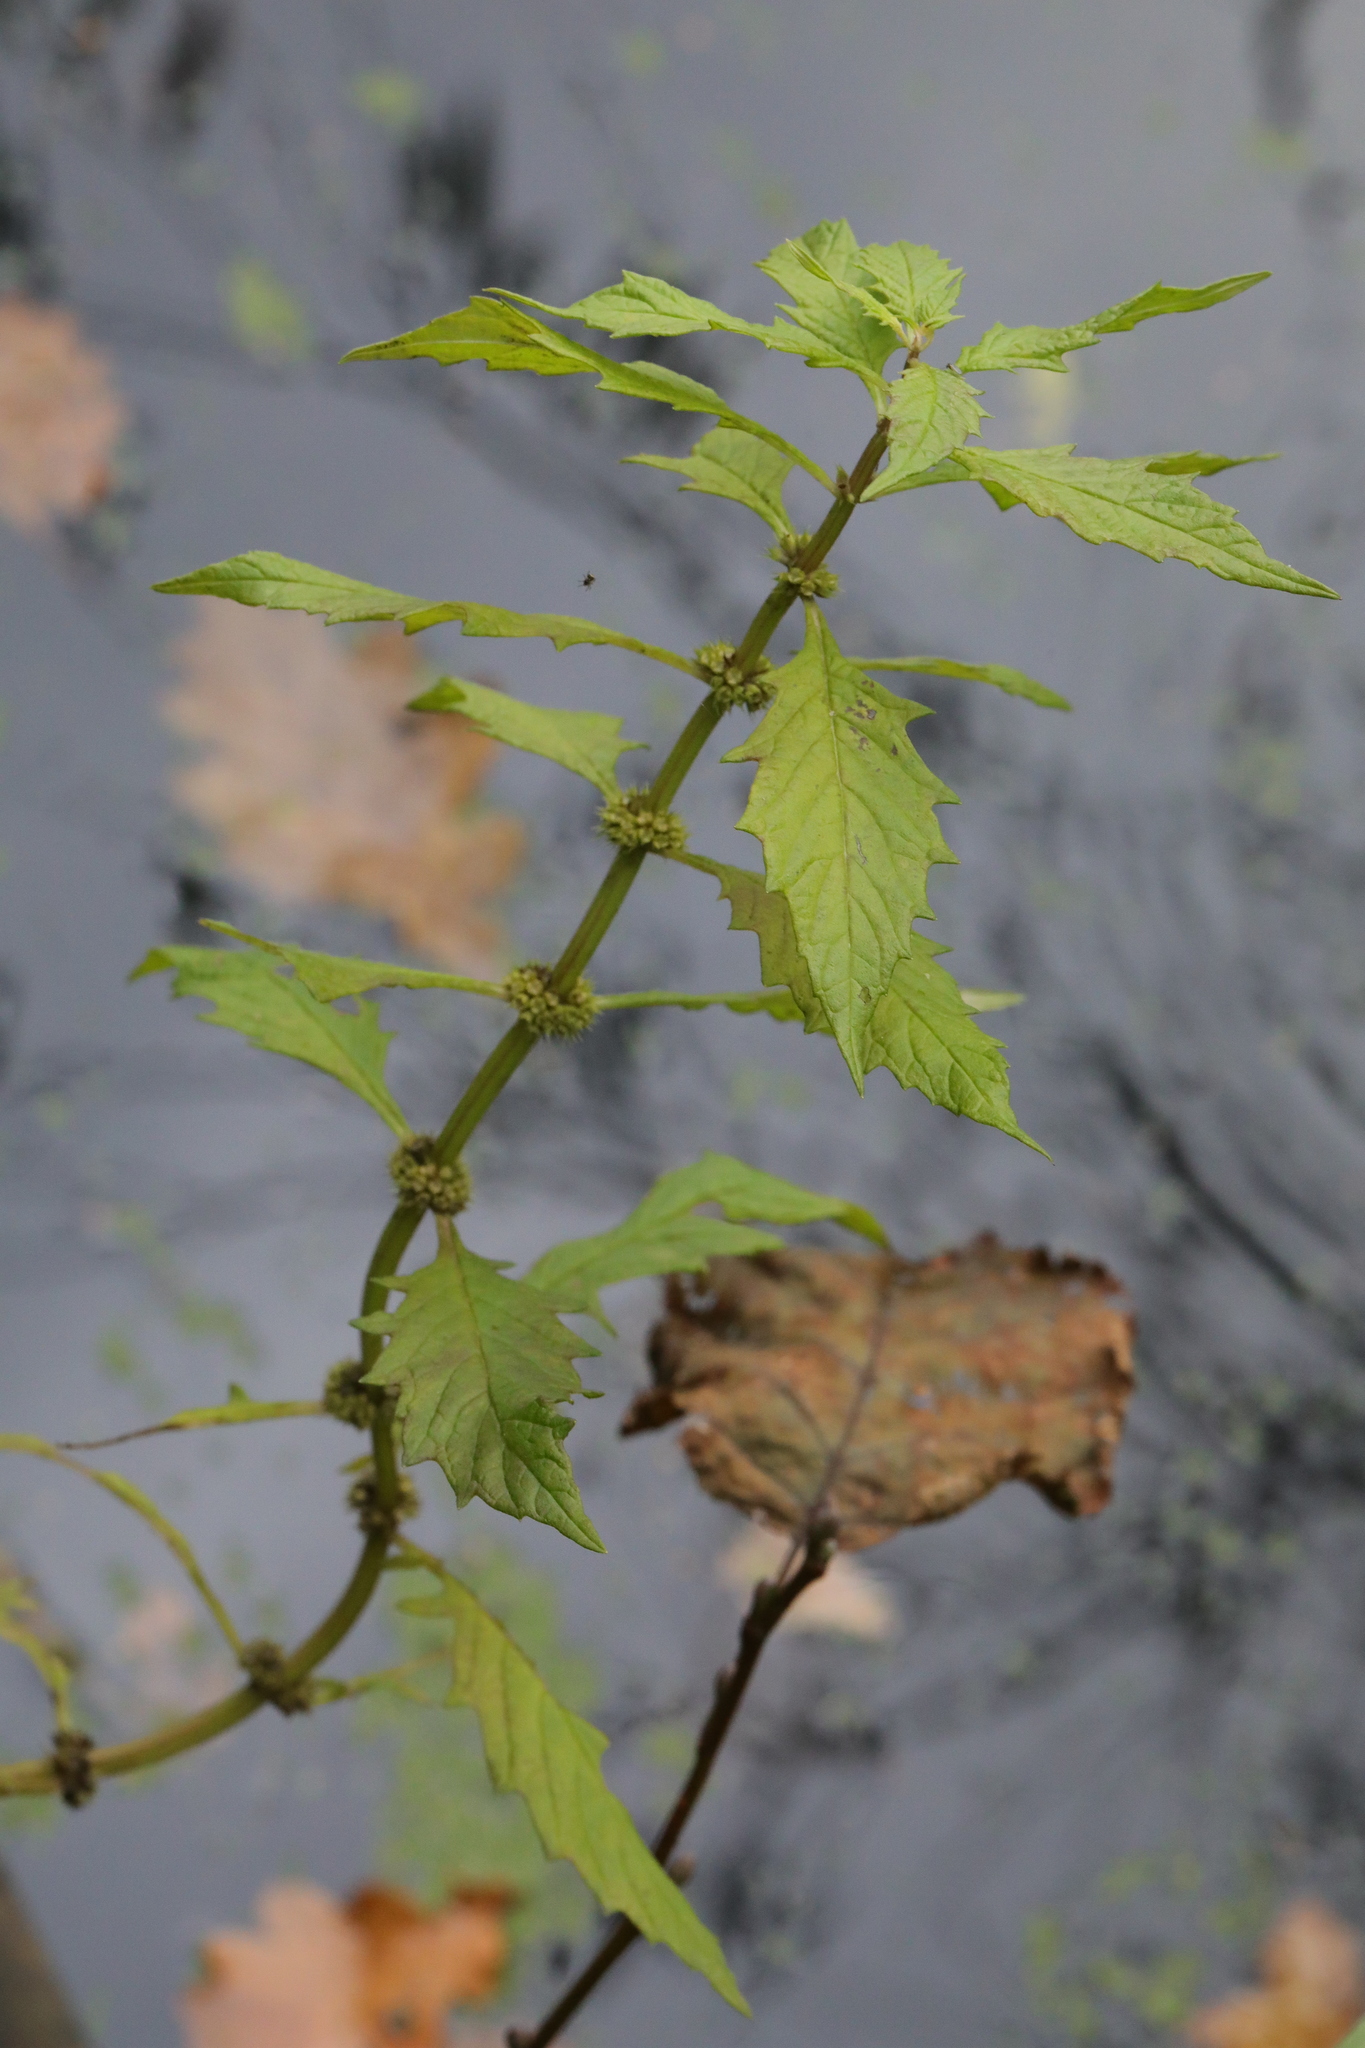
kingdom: Plantae
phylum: Tracheophyta
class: Magnoliopsida
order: Lamiales
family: Lamiaceae
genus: Lycopus
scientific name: Lycopus europaeus
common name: European bugleweed
